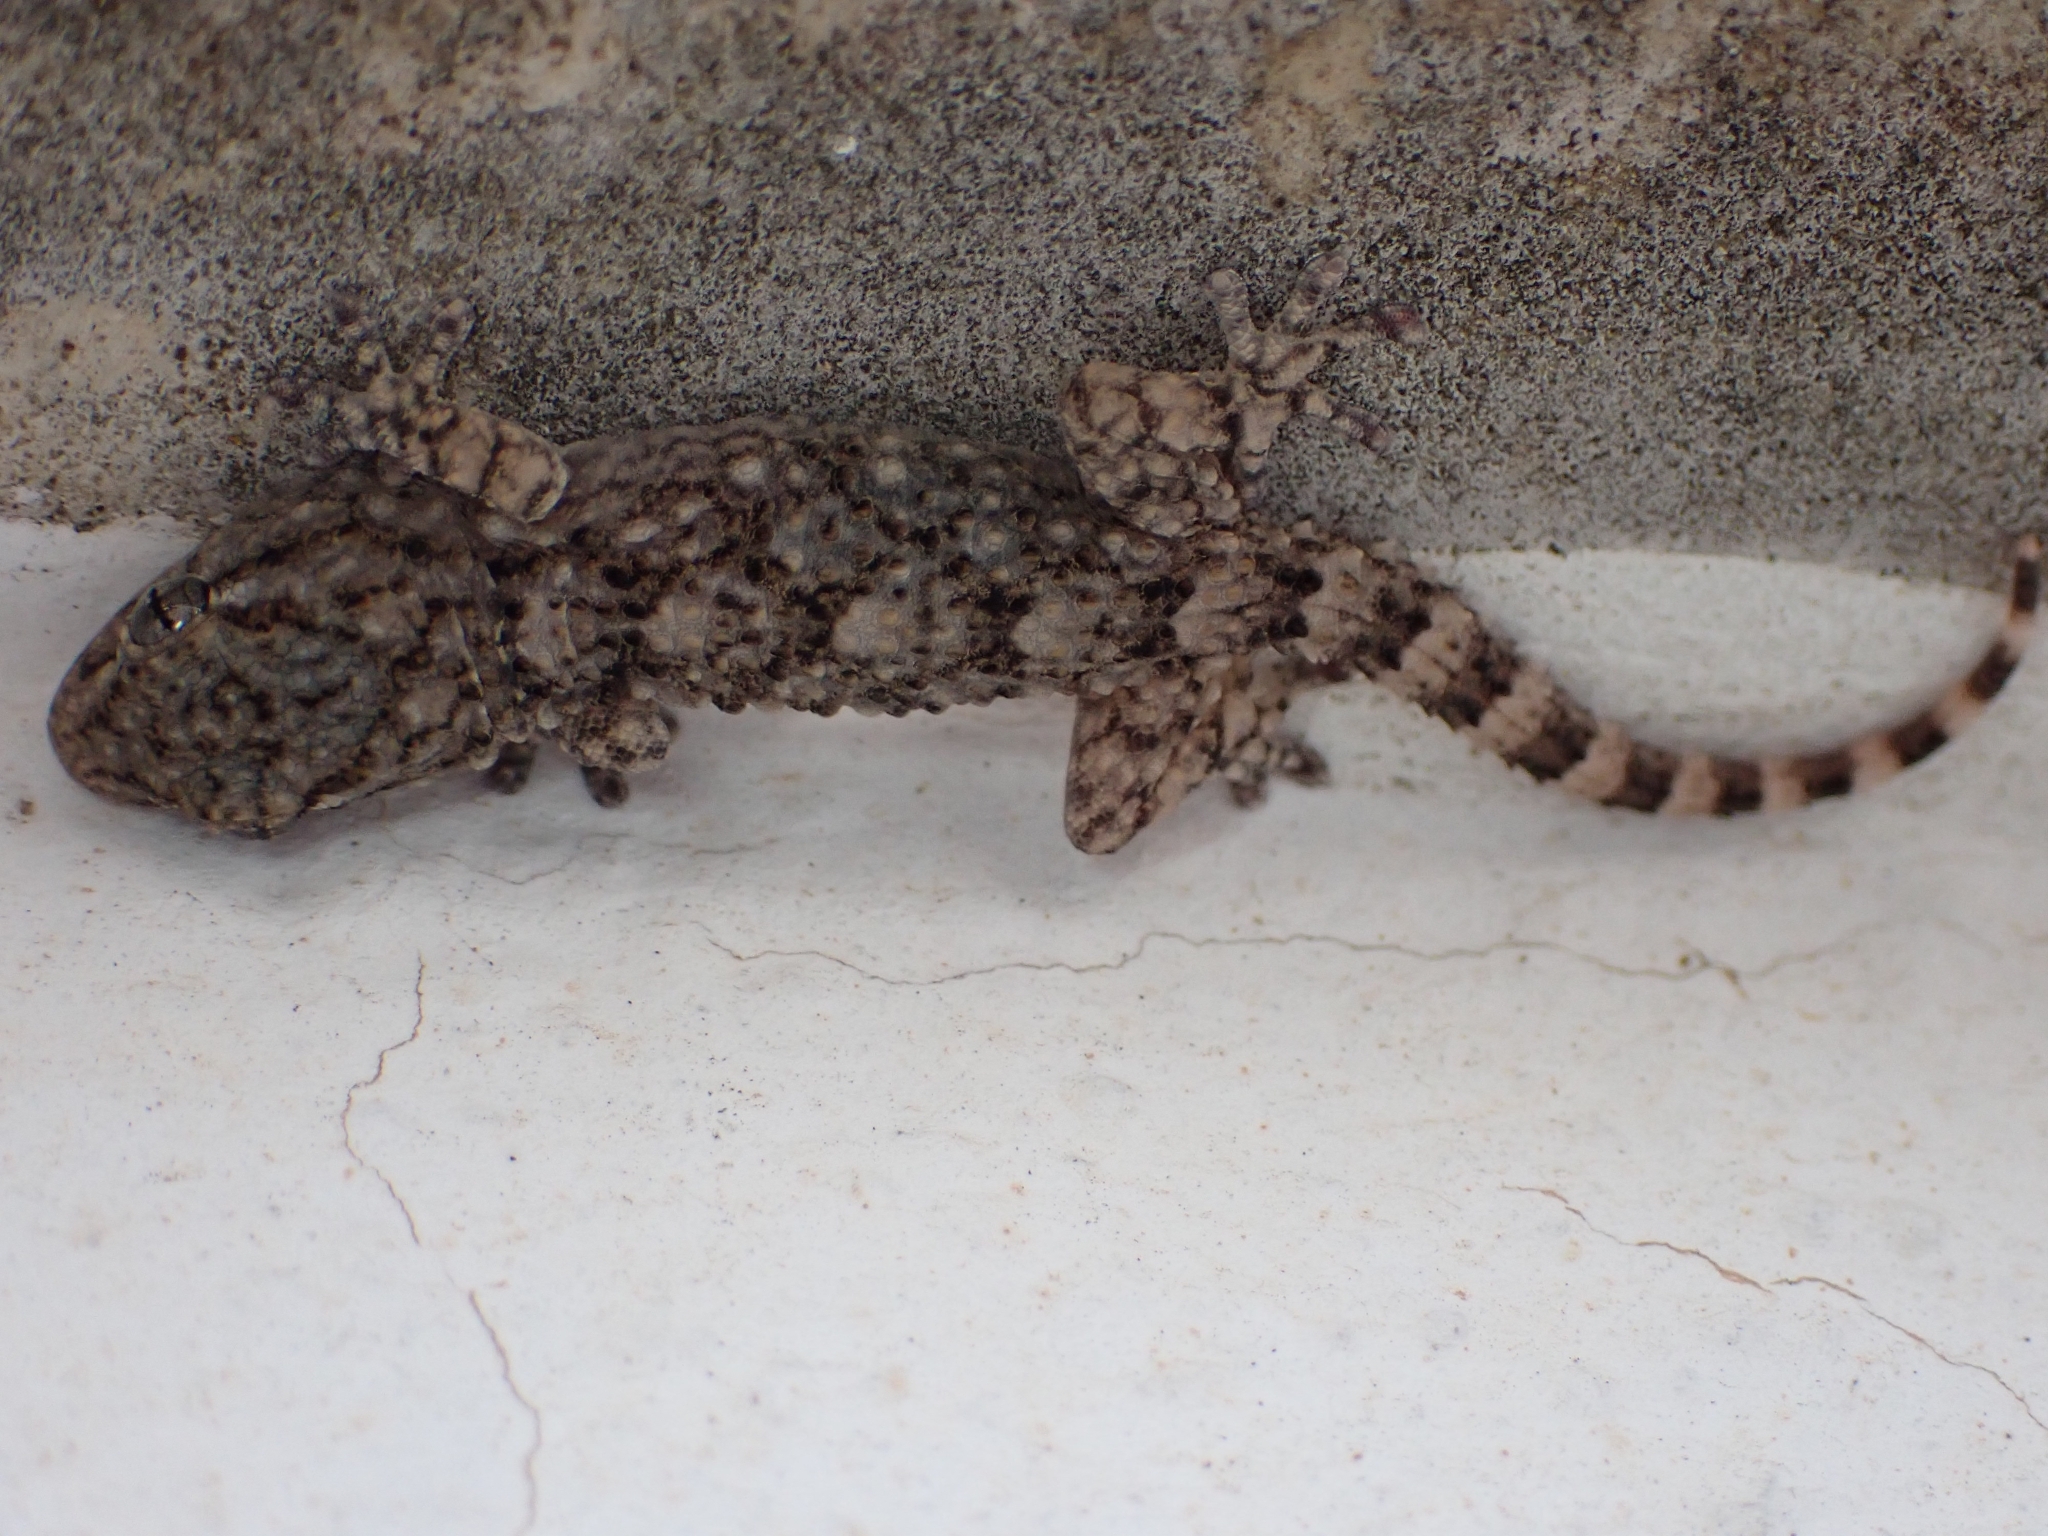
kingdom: Animalia
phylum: Chordata
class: Squamata
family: Phyllodactylidae
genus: Tarentola
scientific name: Tarentola mauritanica
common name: Moorish gecko
